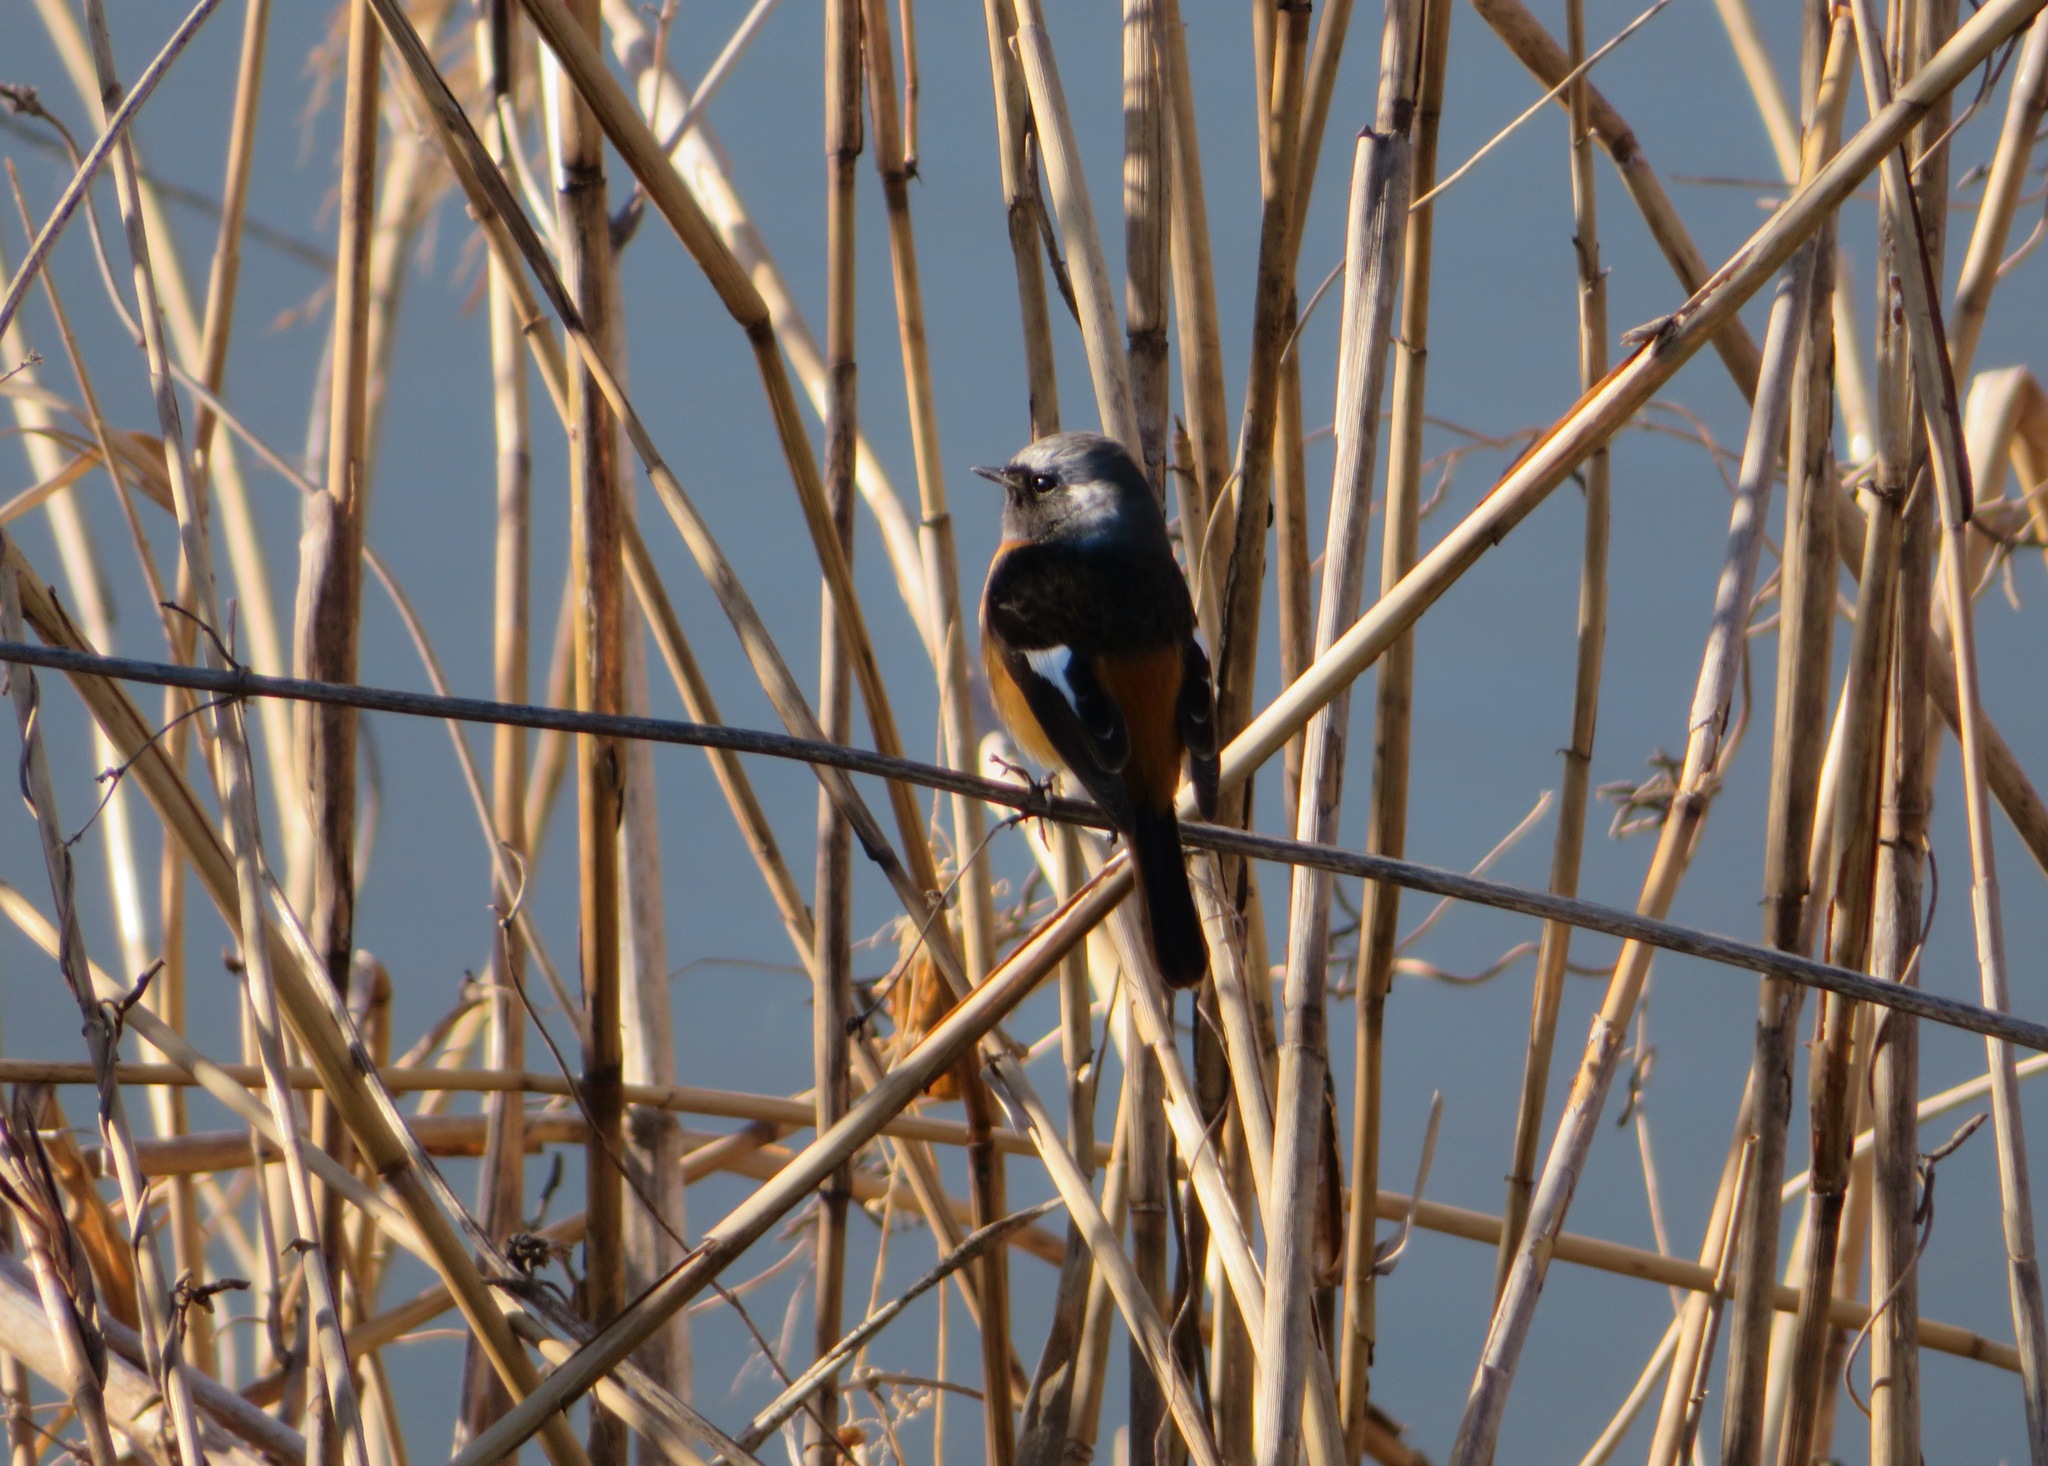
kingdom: Animalia
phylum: Chordata
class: Aves
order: Passeriformes
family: Muscicapidae
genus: Phoenicurus
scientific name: Phoenicurus auroreus
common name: Daurian redstart
